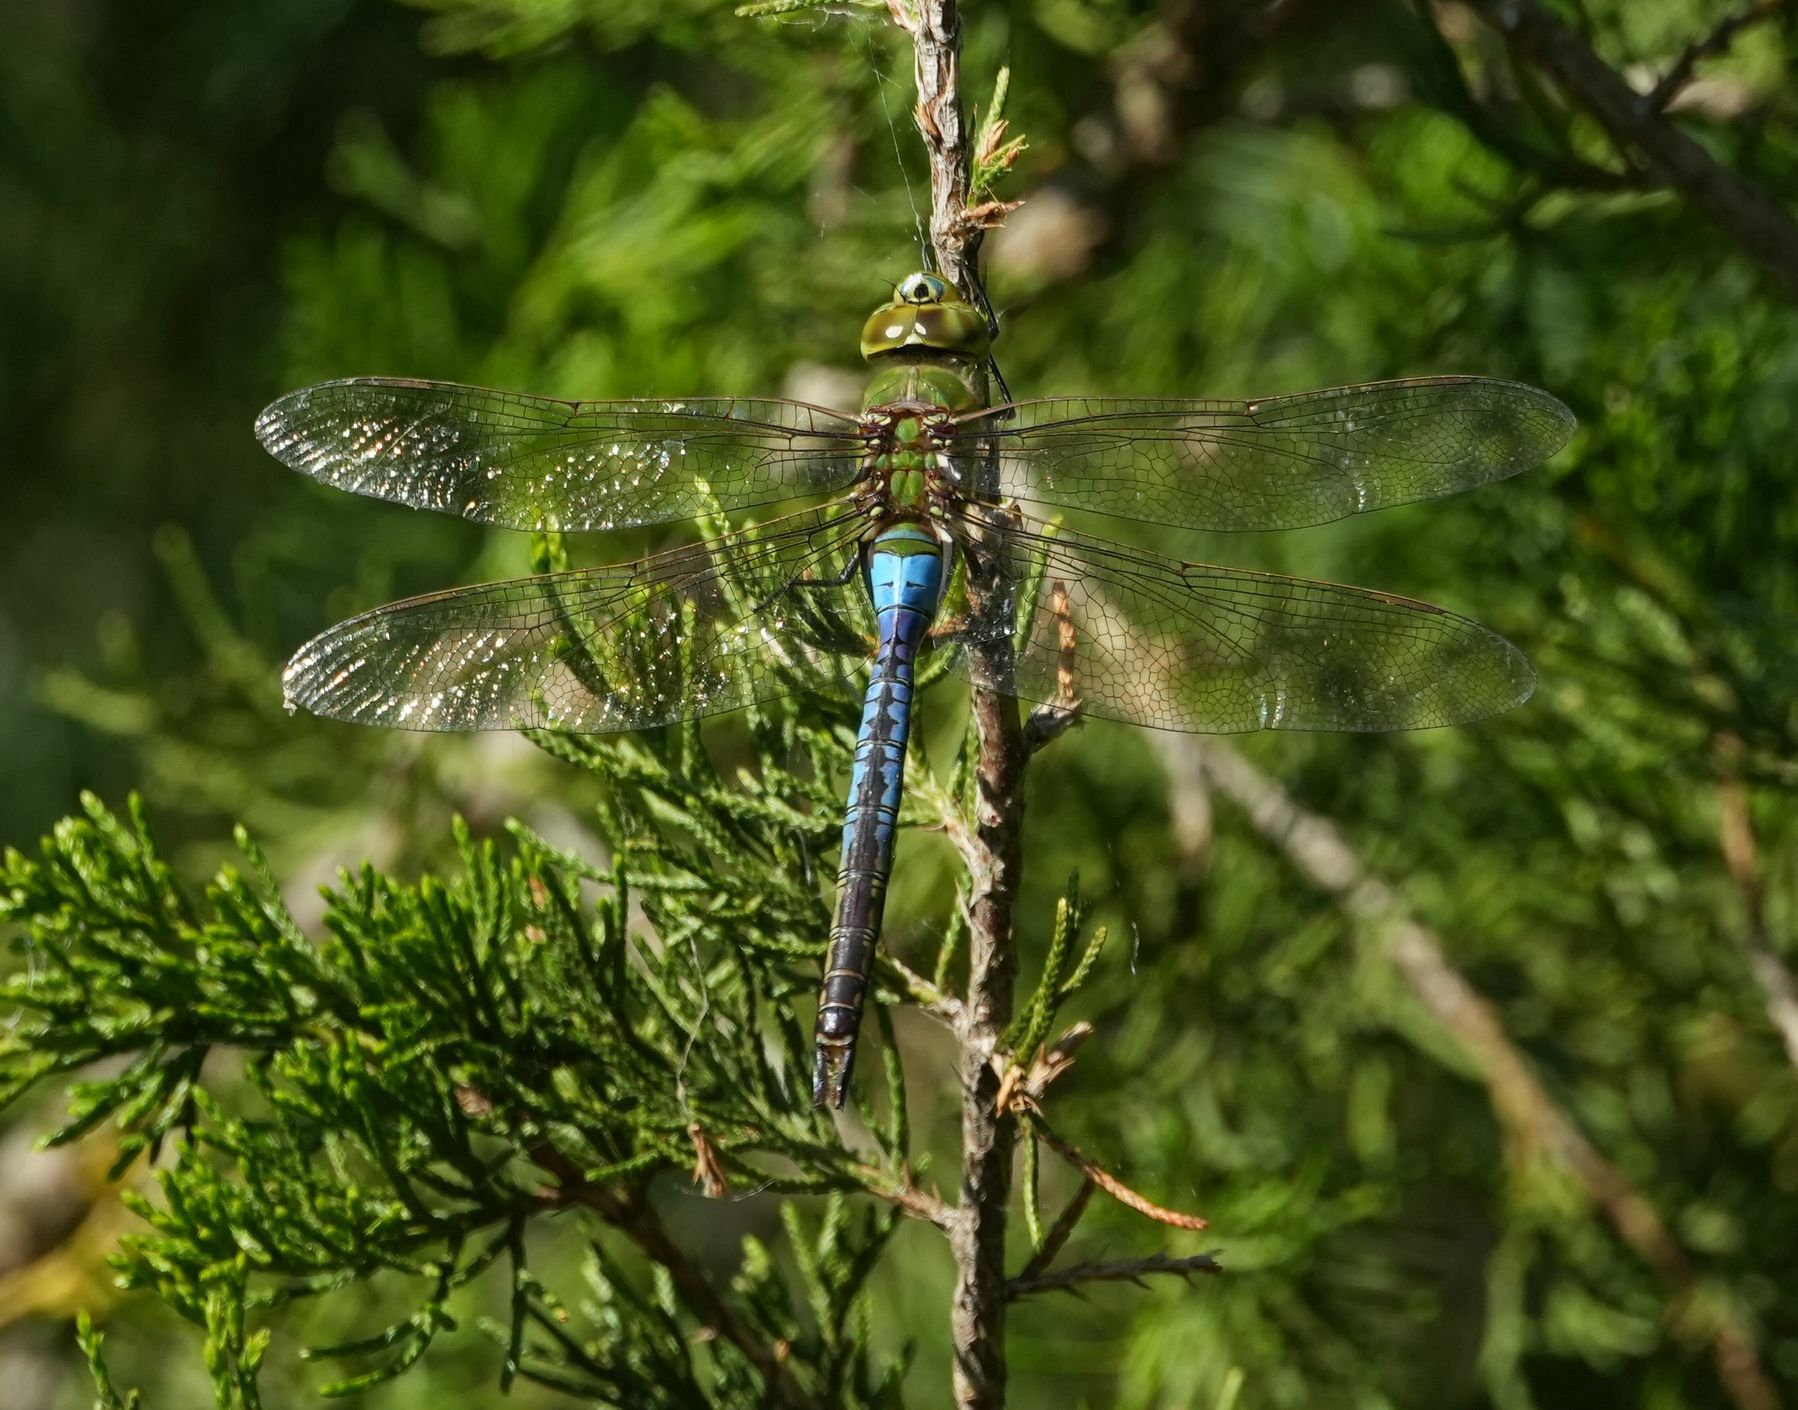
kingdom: Animalia
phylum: Arthropoda
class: Insecta
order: Odonata
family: Aeshnidae
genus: Anax
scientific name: Anax junius
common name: Common green darner
